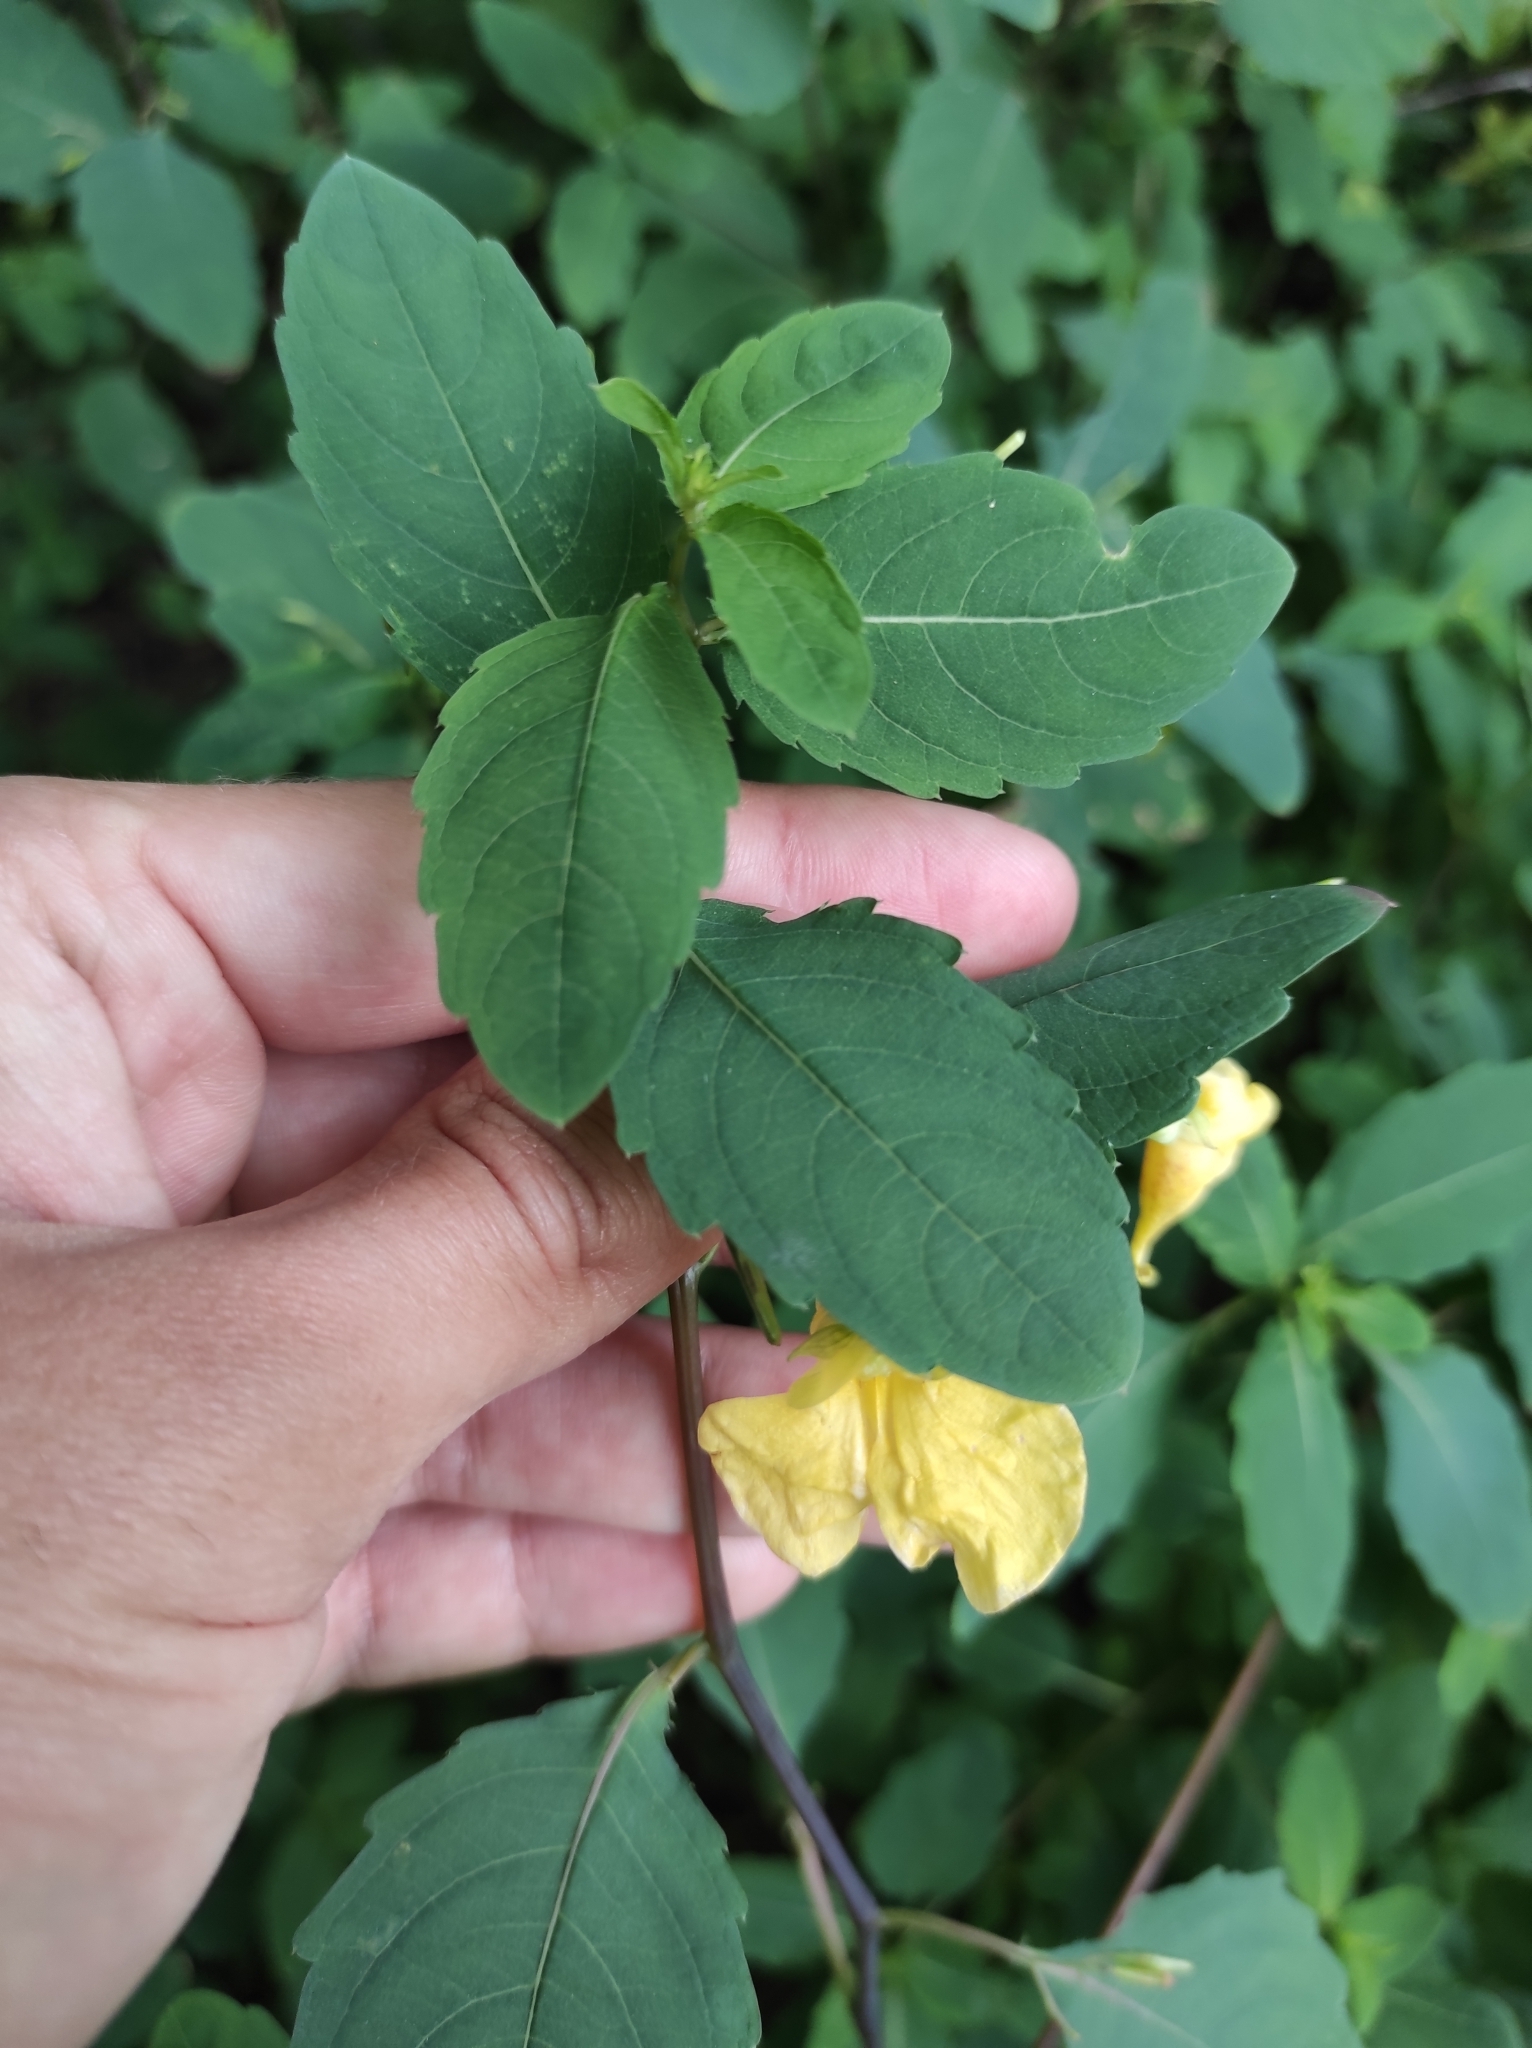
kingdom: Plantae
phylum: Tracheophyta
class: Magnoliopsida
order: Ericales
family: Balsaminaceae
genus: Impatiens
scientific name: Impatiens noli-tangere
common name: Touch-me-not balsam
